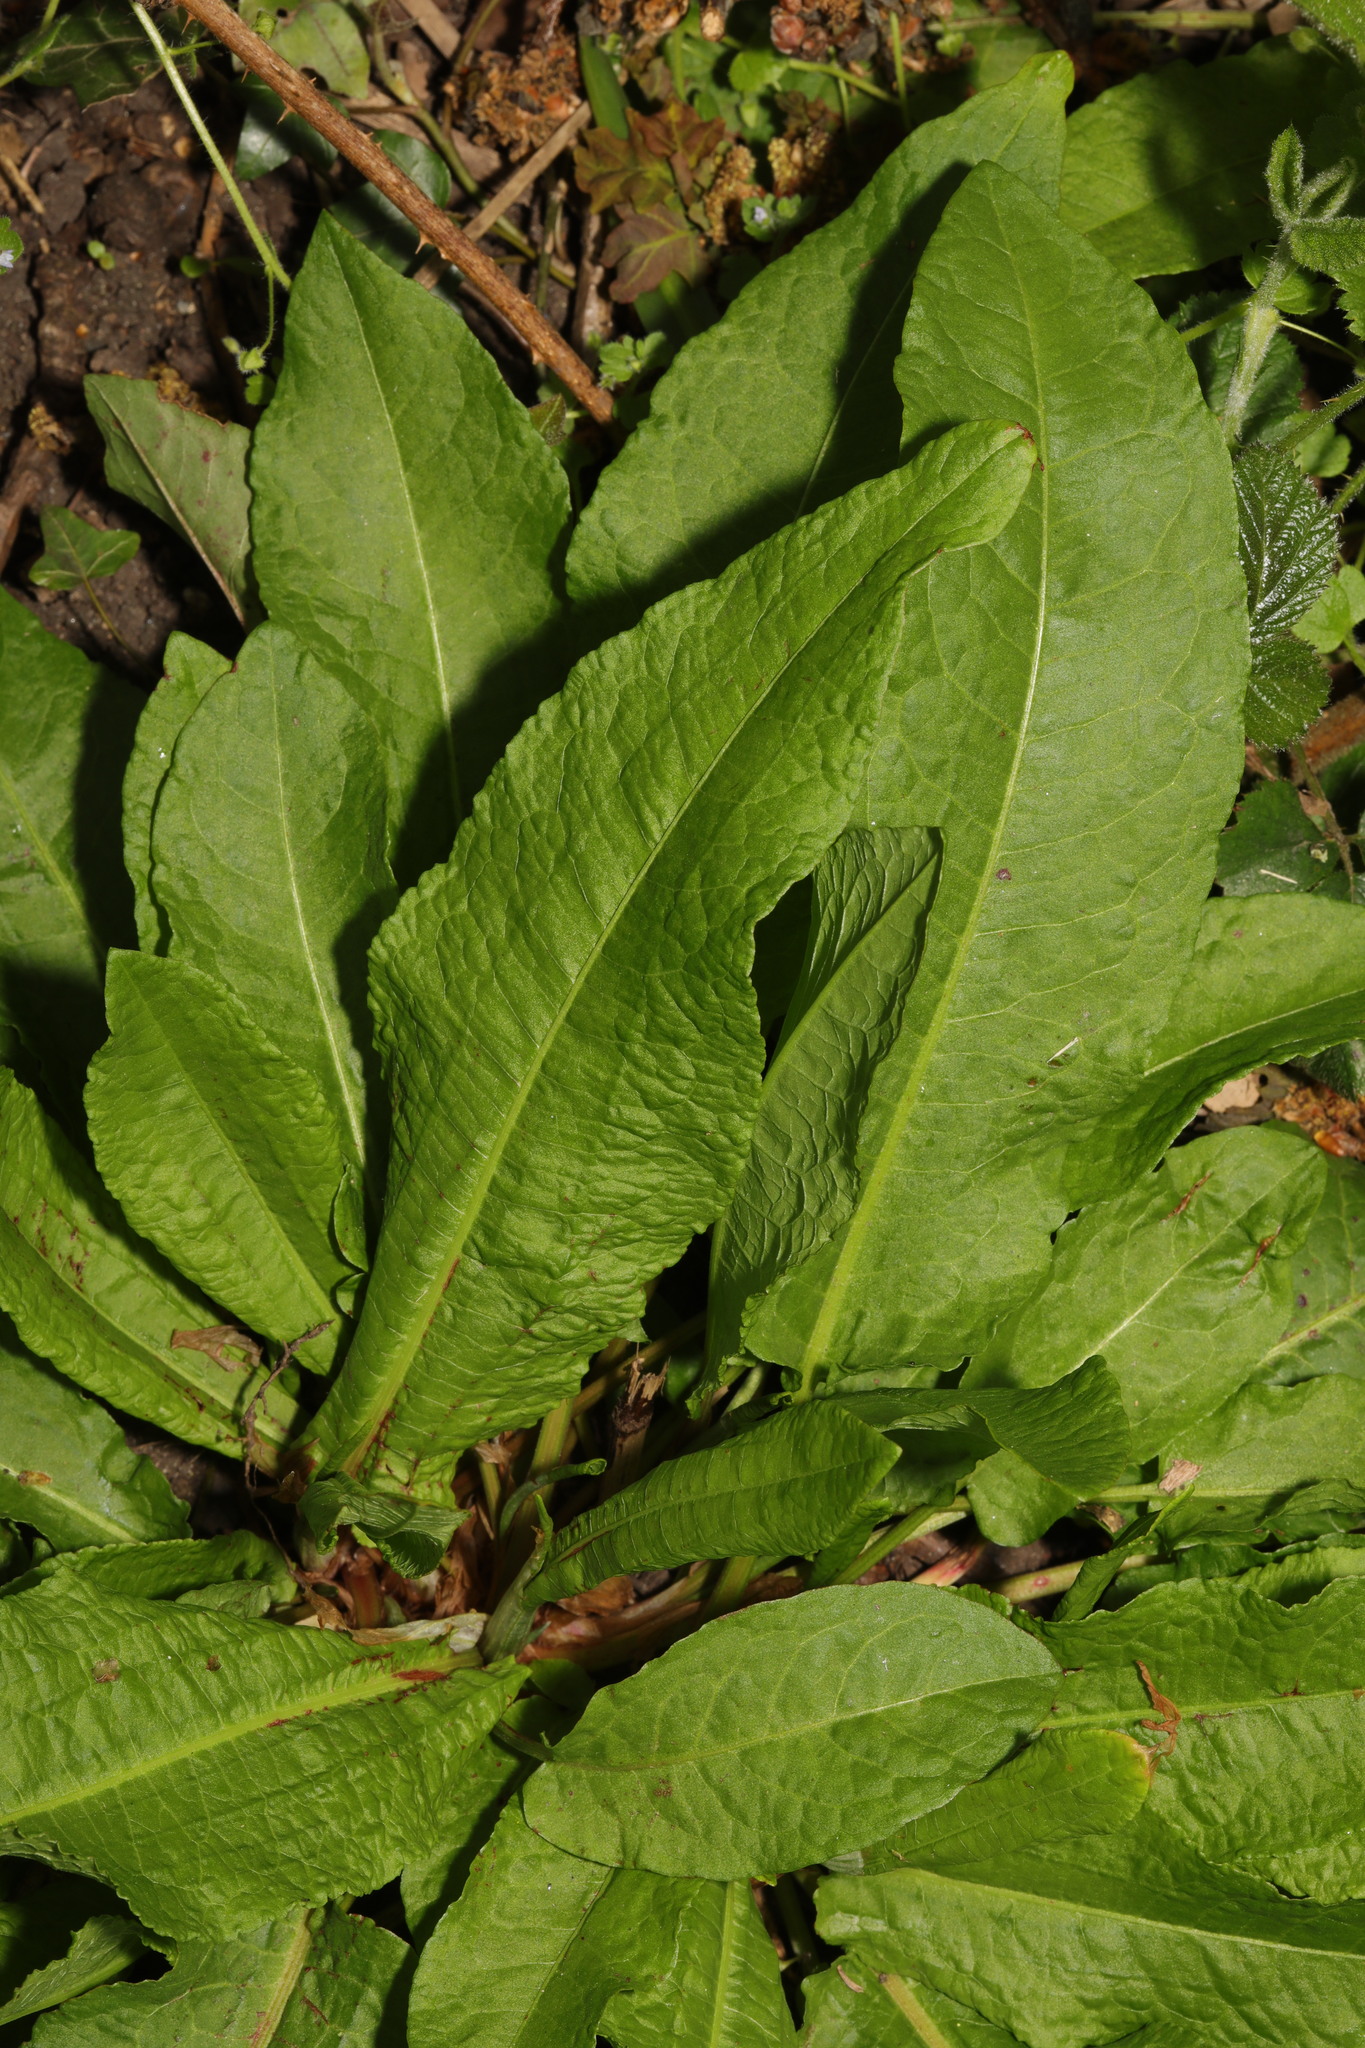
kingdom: Plantae
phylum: Tracheophyta
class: Magnoliopsida
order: Caryophyllales
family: Polygonaceae
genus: Rumex
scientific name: Rumex obtusifolius
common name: Bitter dock
